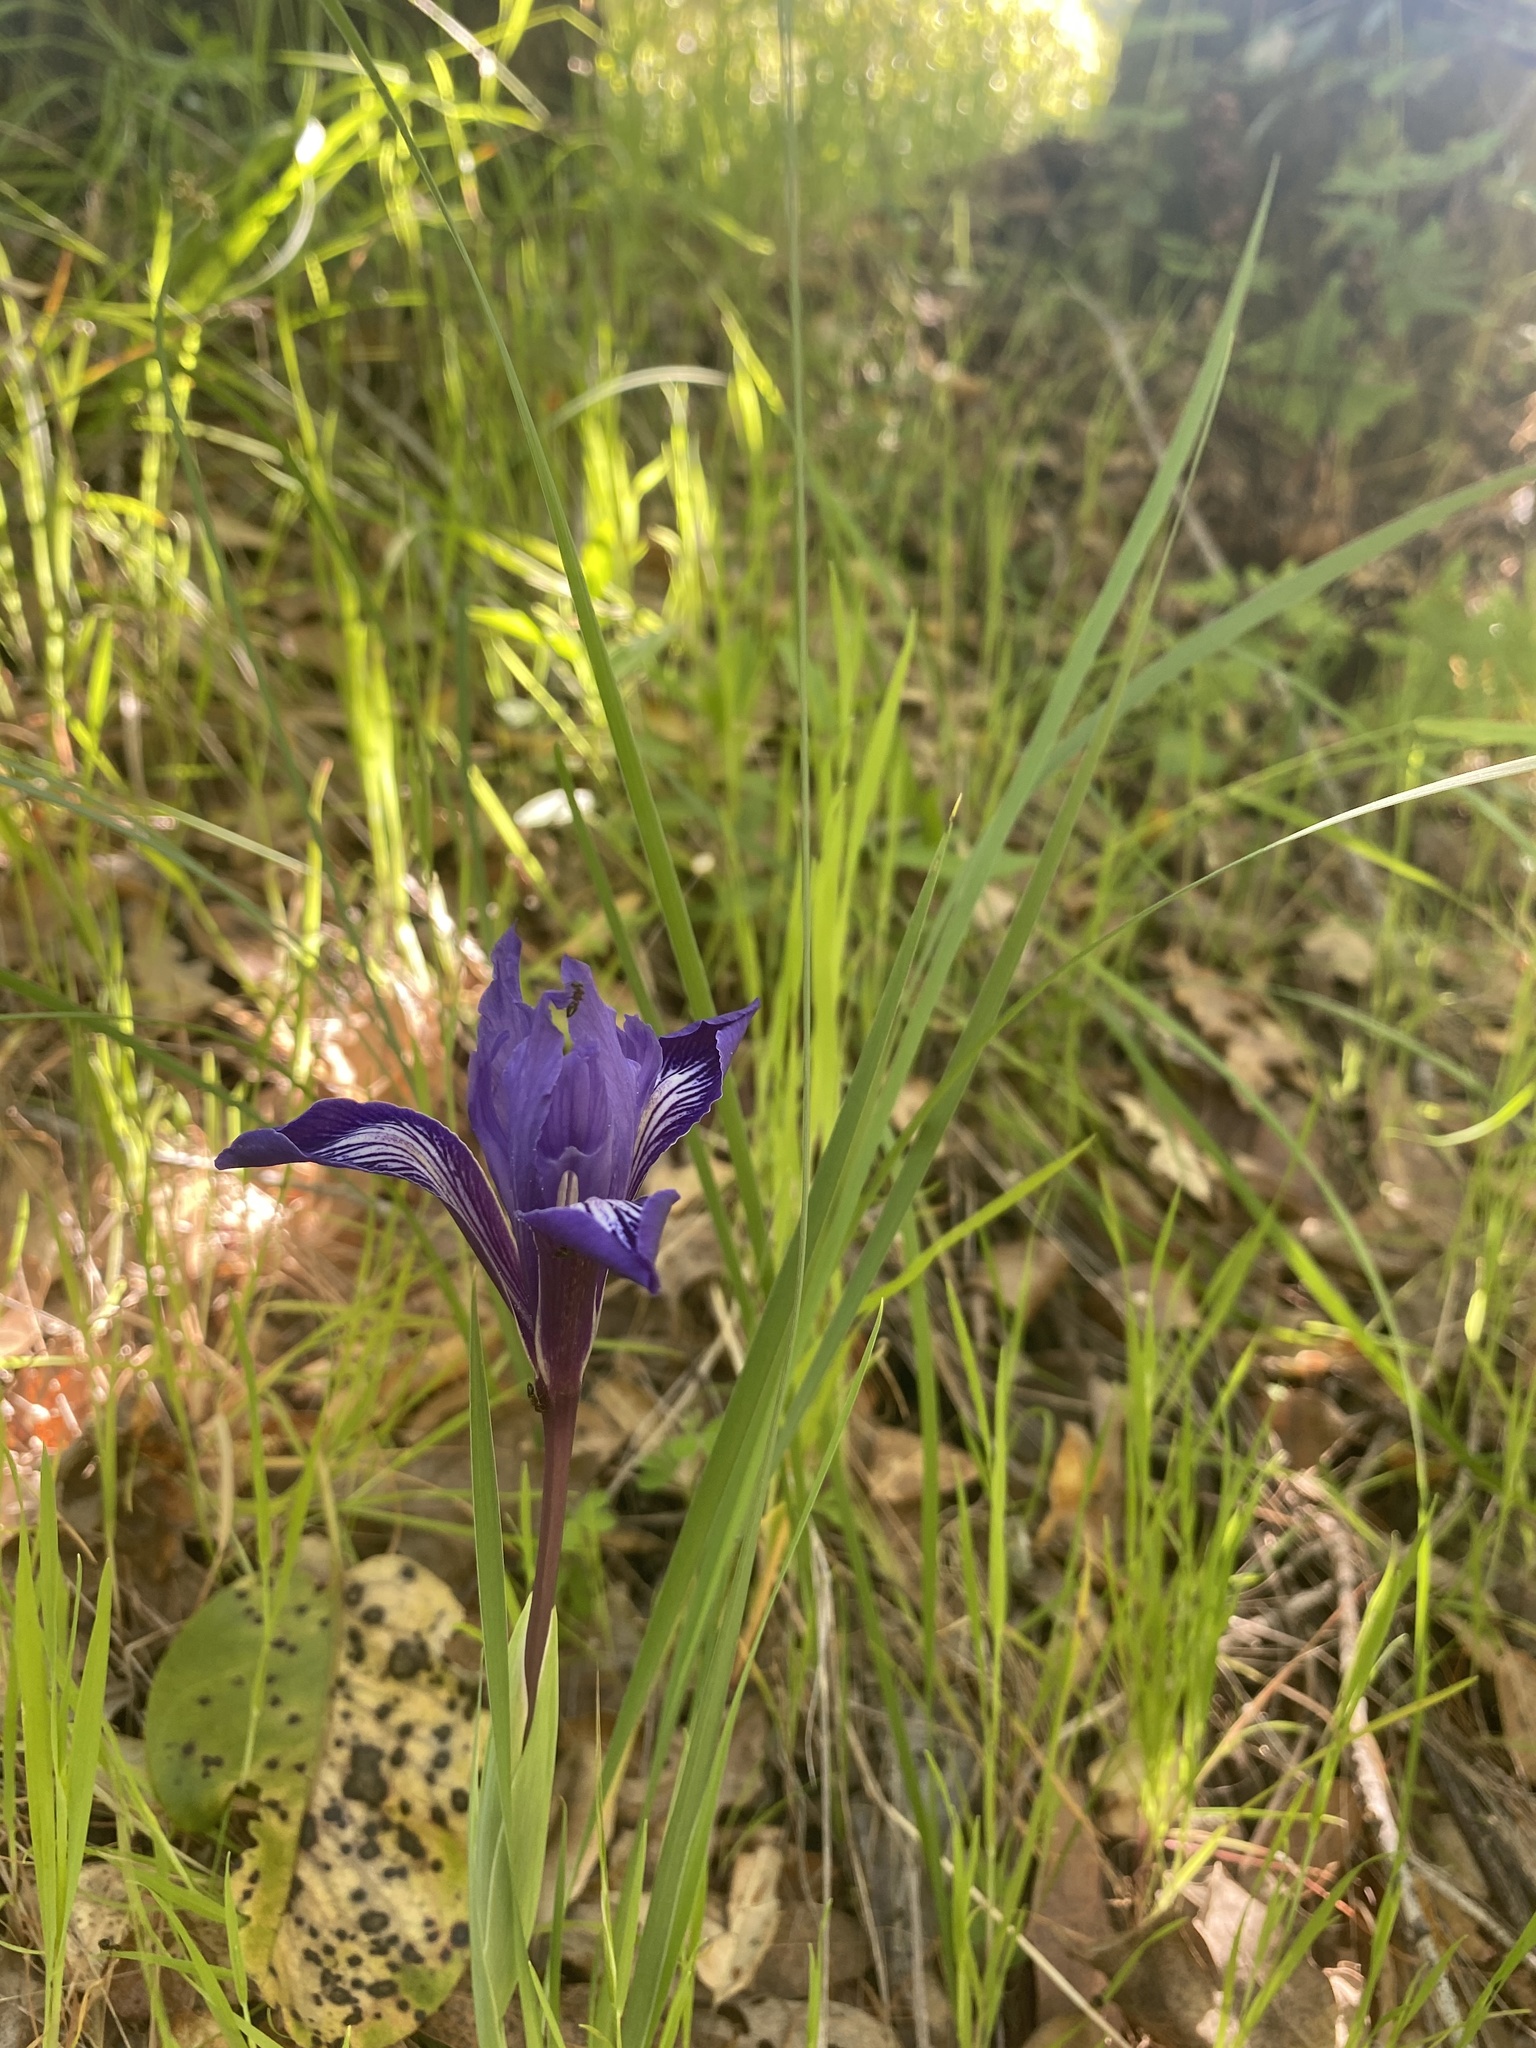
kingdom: Plantae
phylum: Tracheophyta
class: Liliopsida
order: Asparagales
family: Iridaceae
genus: Iris
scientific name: Iris macrosiphon
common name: Ground iris
